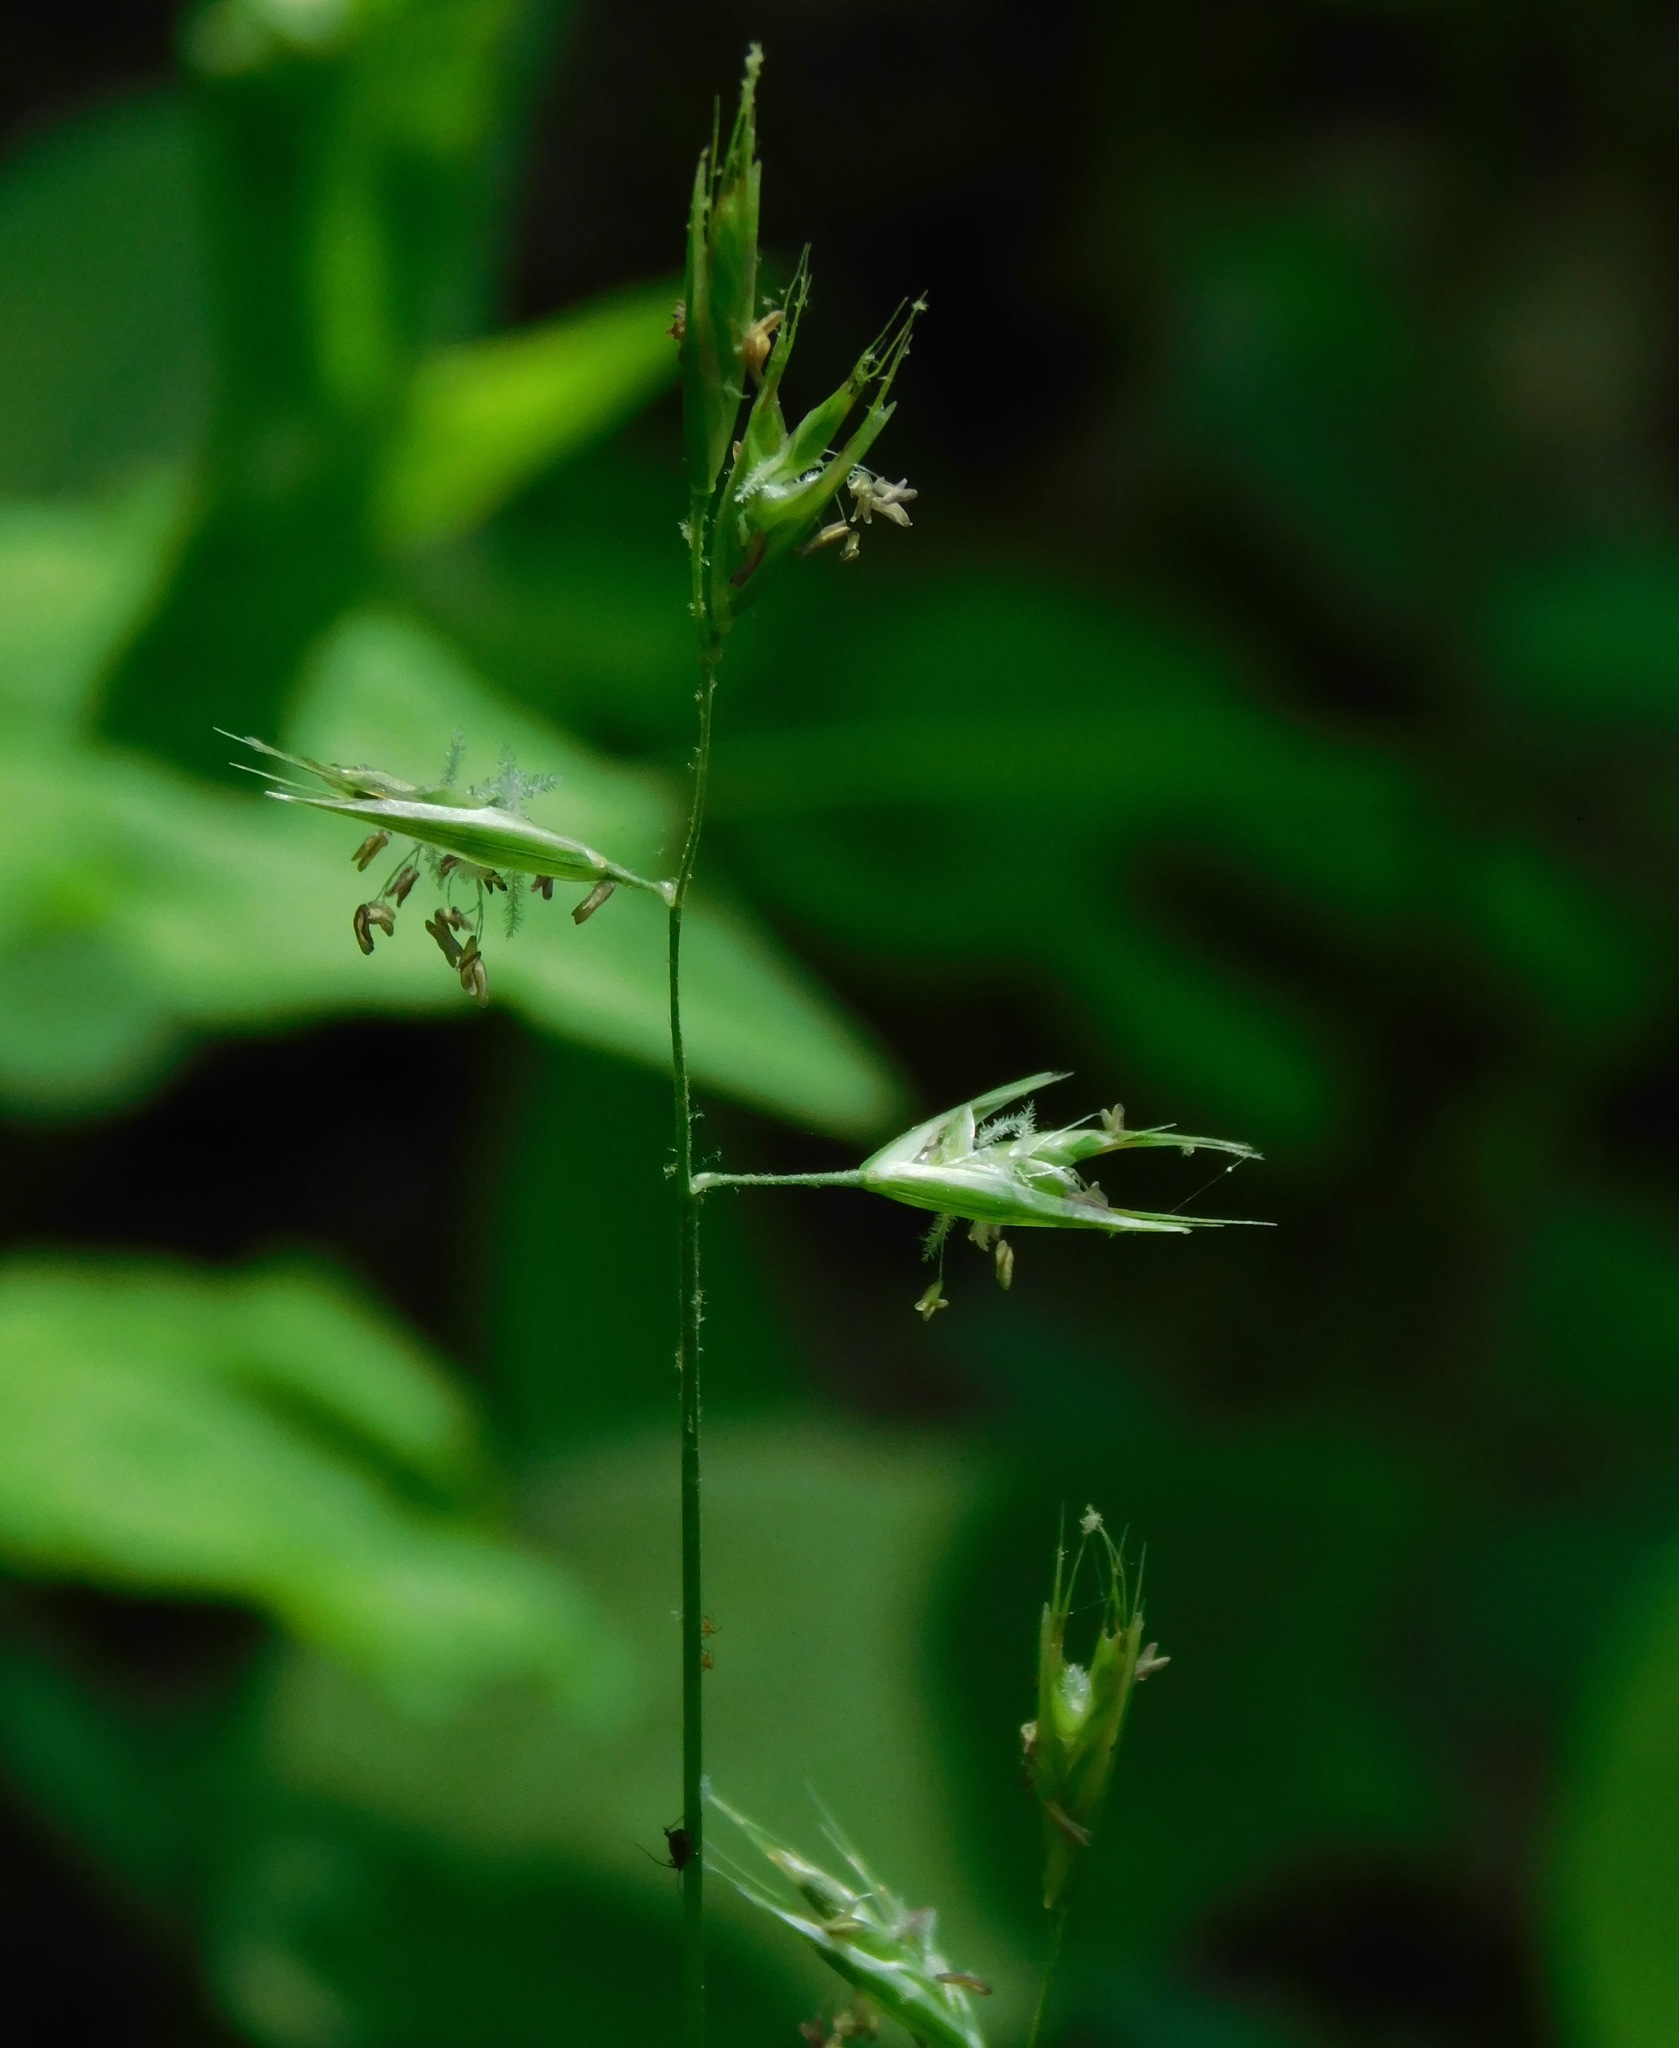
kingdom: Plantae
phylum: Tracheophyta
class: Liliopsida
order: Poales
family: Poaceae
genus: Danthonia
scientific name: Danthonia sericea
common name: Downy danthonia
